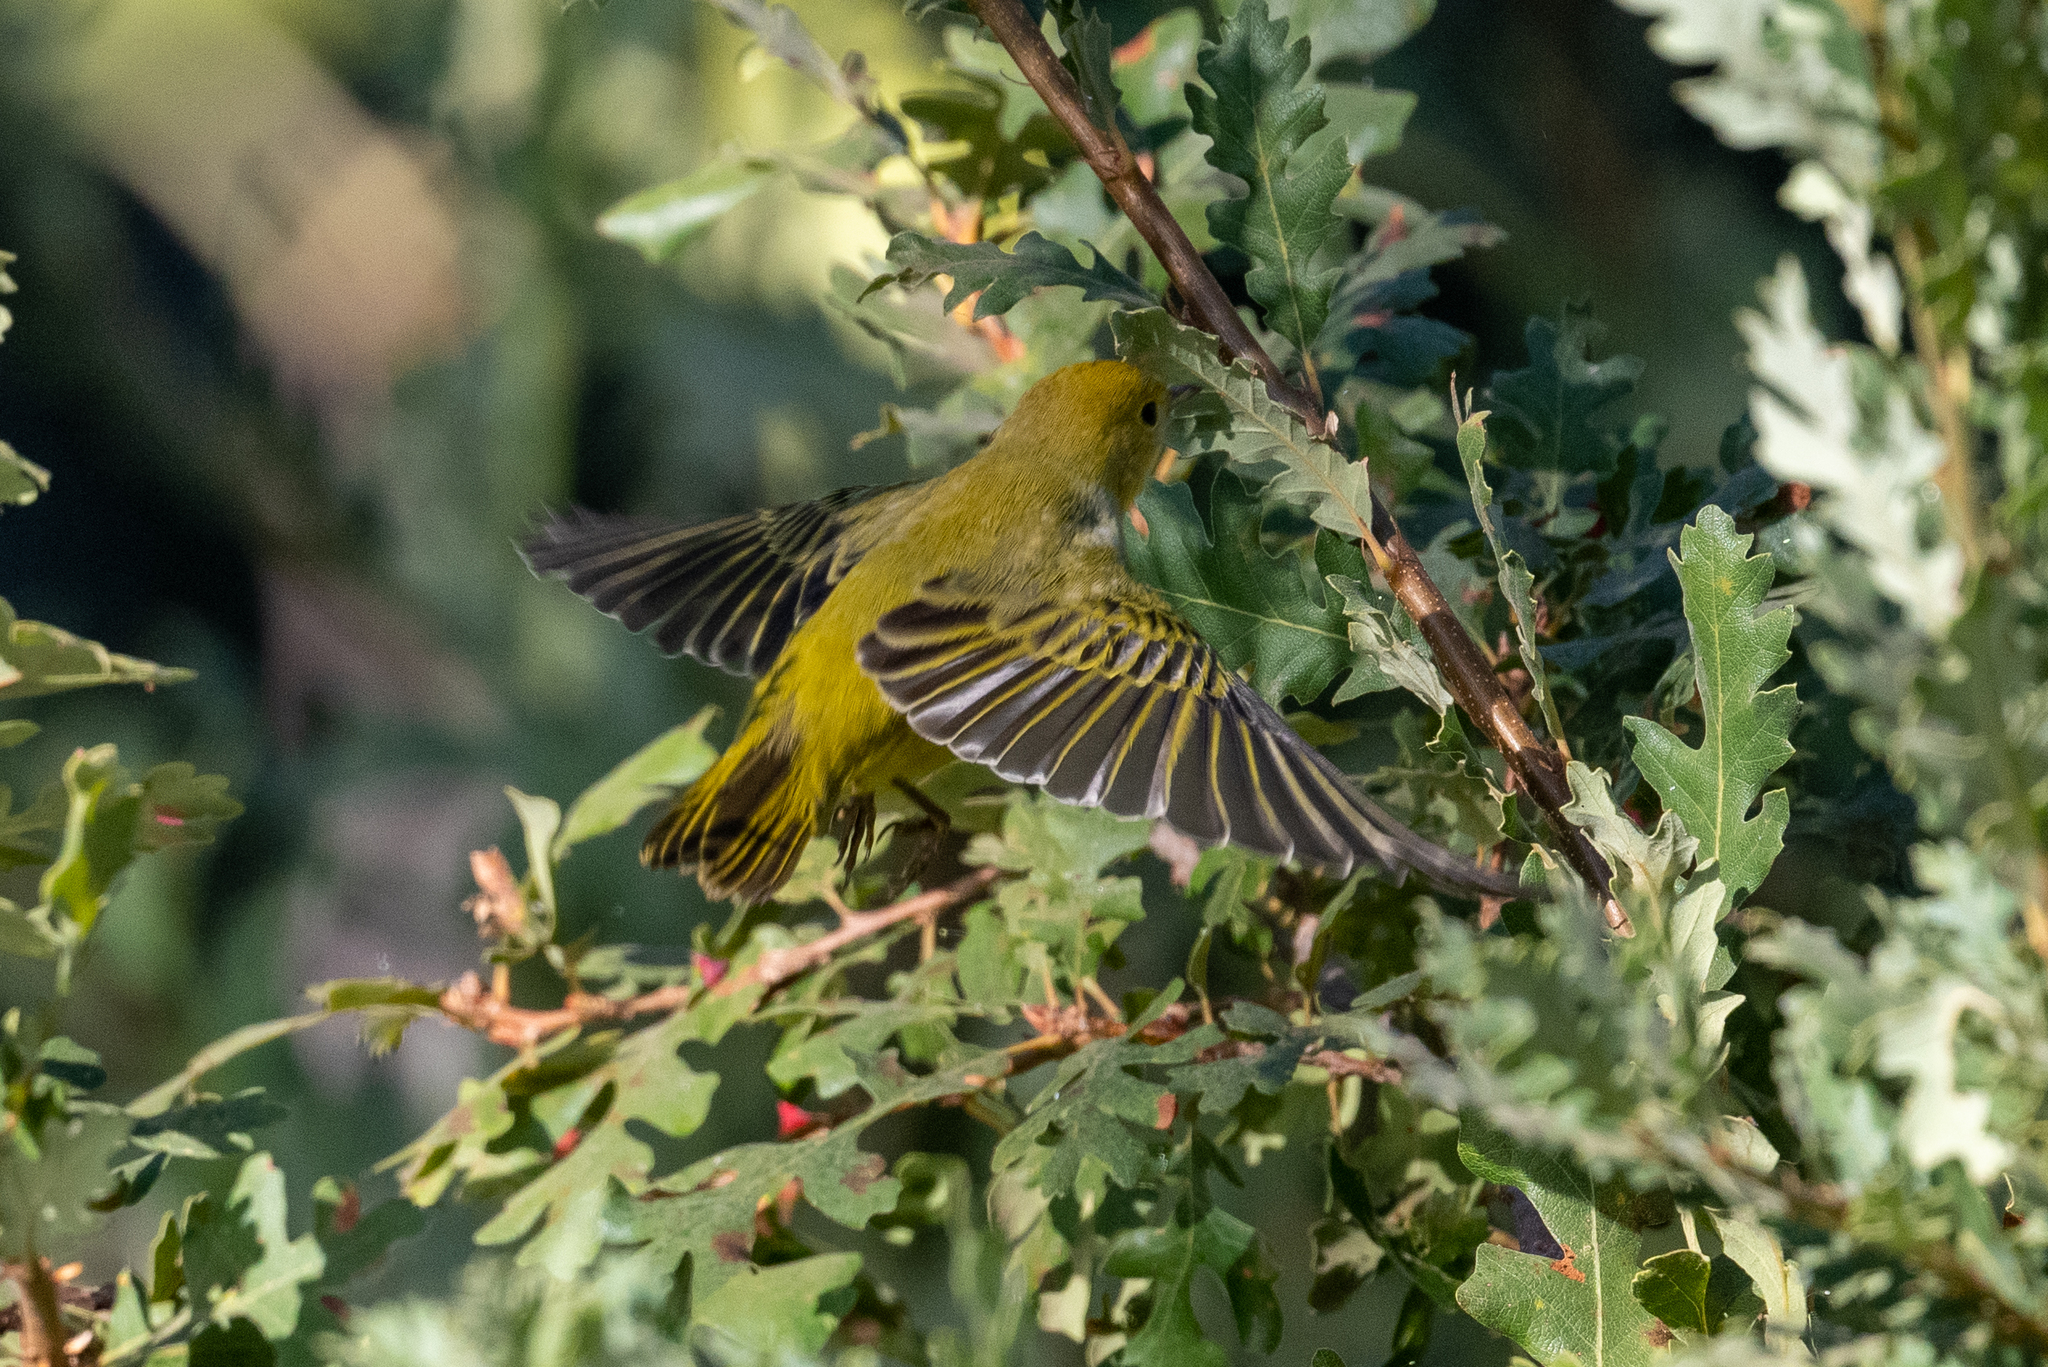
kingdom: Animalia
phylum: Chordata
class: Aves
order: Passeriformes
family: Parulidae
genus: Setophaga
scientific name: Setophaga petechia
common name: Yellow warbler
